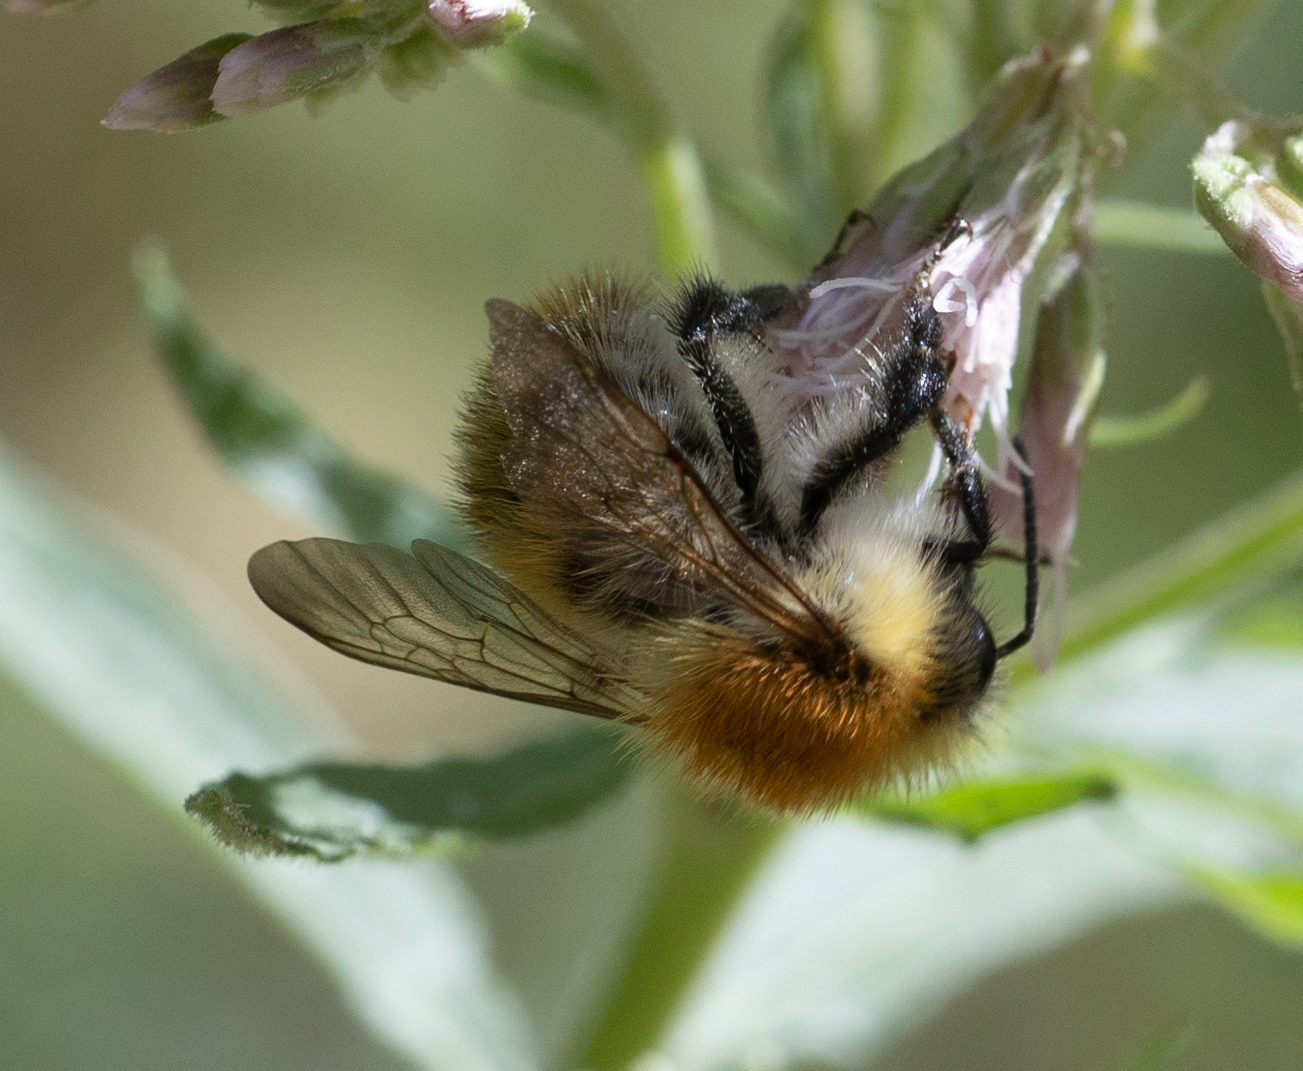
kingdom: Animalia
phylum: Arthropoda
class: Insecta
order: Hymenoptera
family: Apidae
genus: Bombus
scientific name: Bombus pascuorum
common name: Common carder bee
